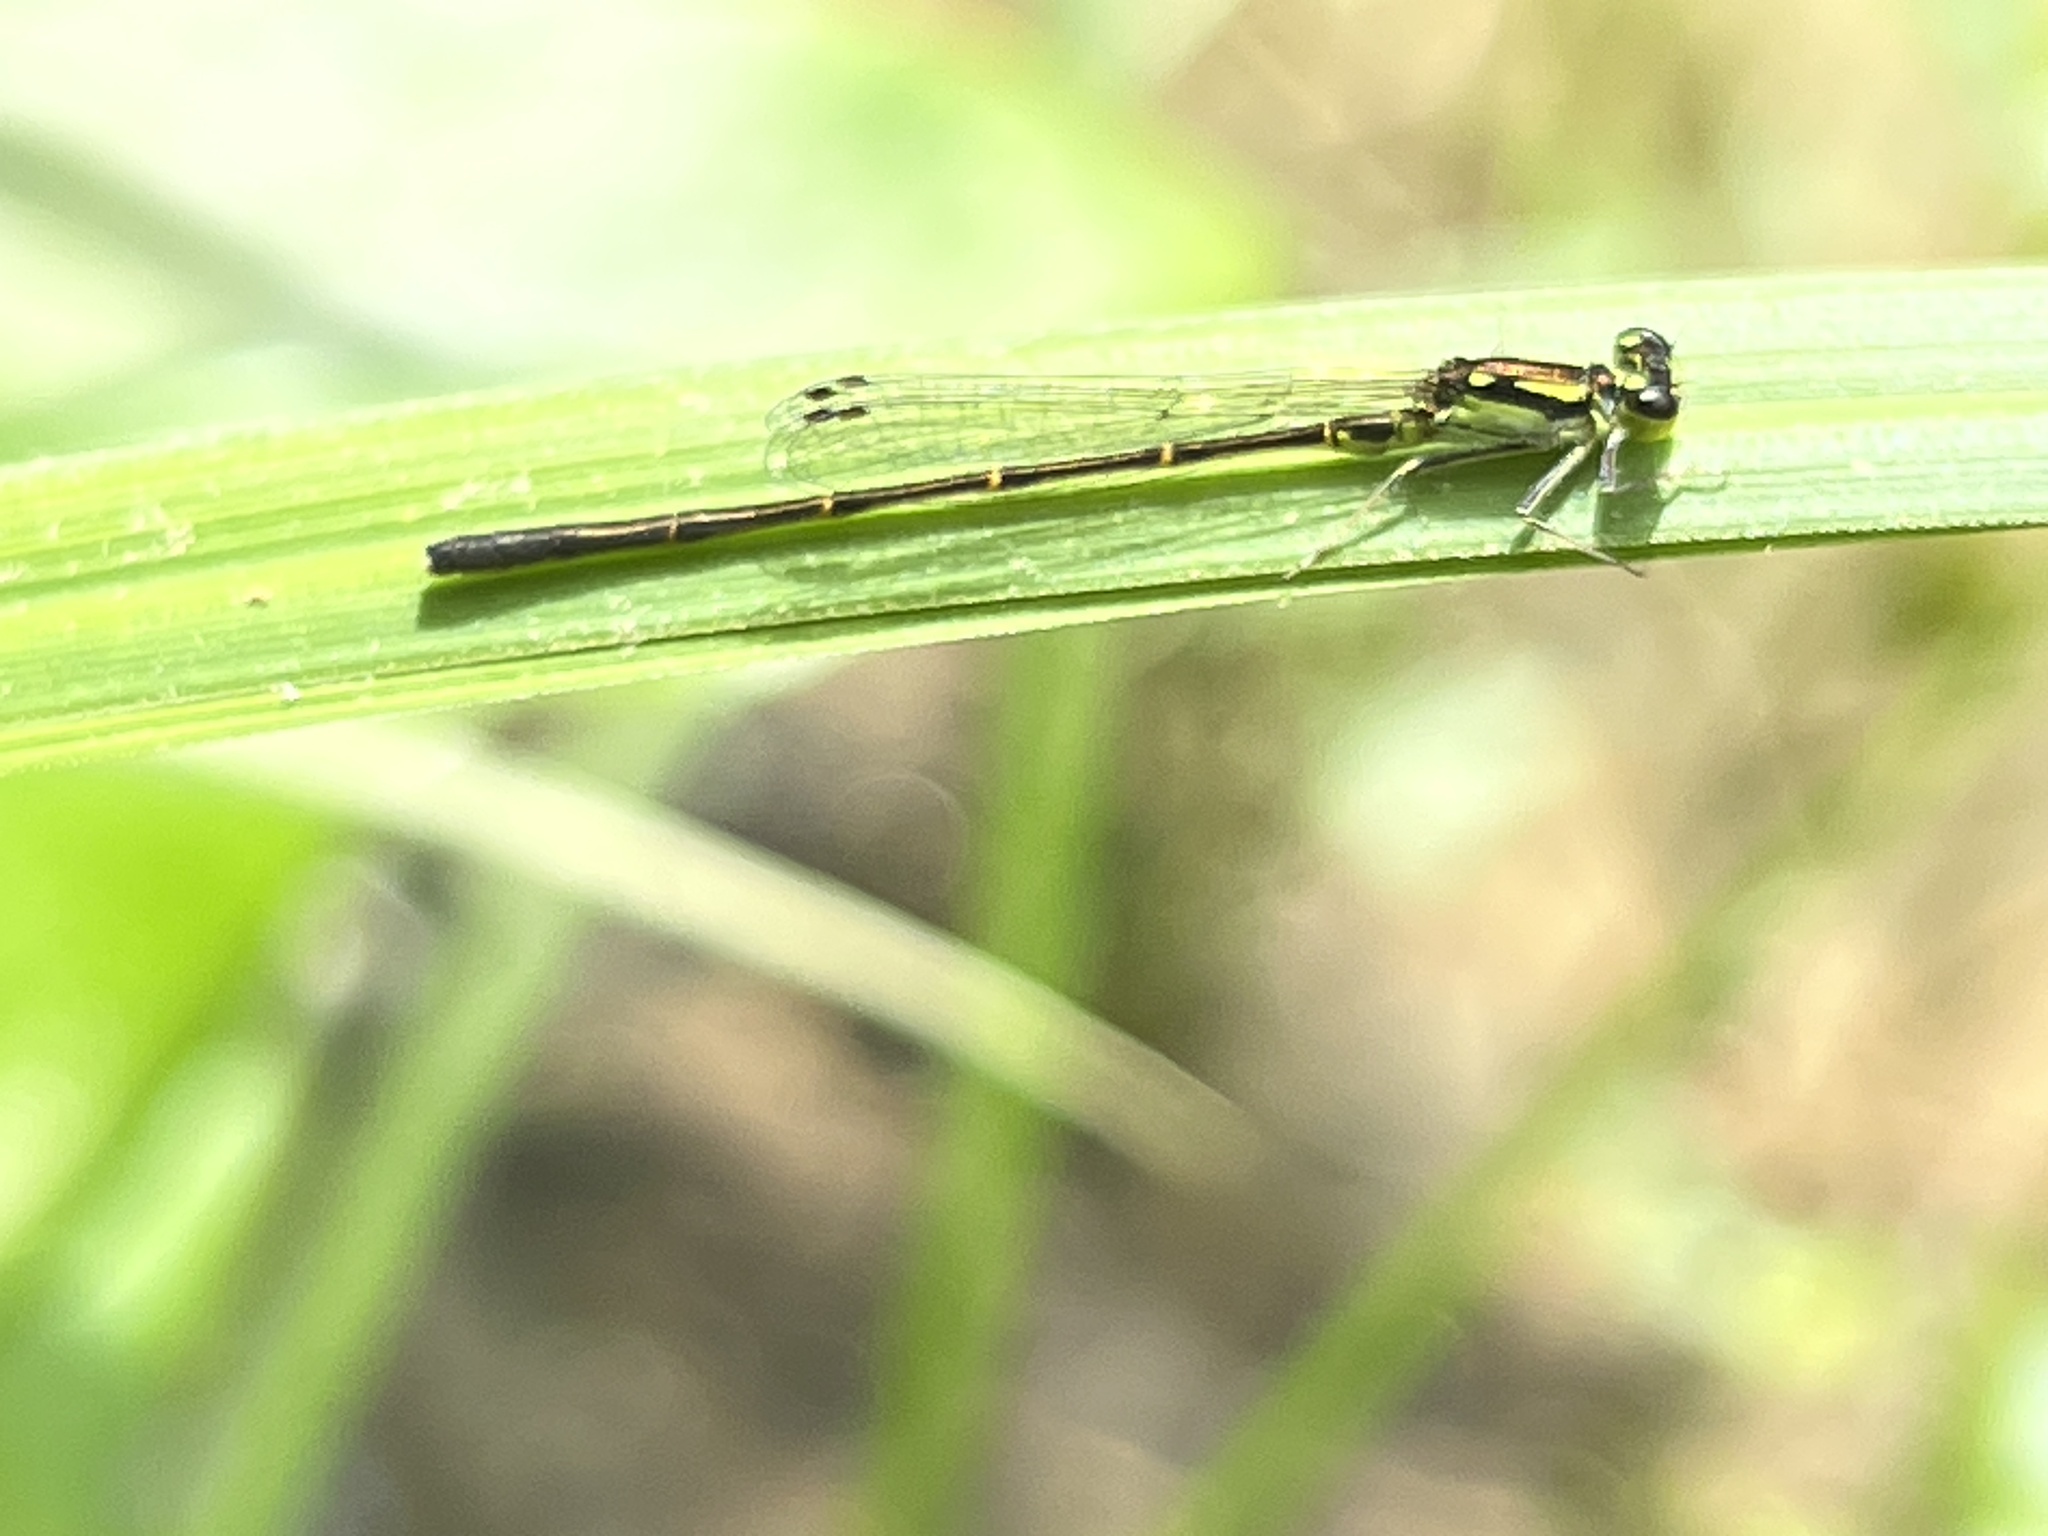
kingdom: Animalia
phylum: Arthropoda
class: Insecta
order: Odonata
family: Coenagrionidae
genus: Ischnura
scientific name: Ischnura posita
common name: Fragile forktail
